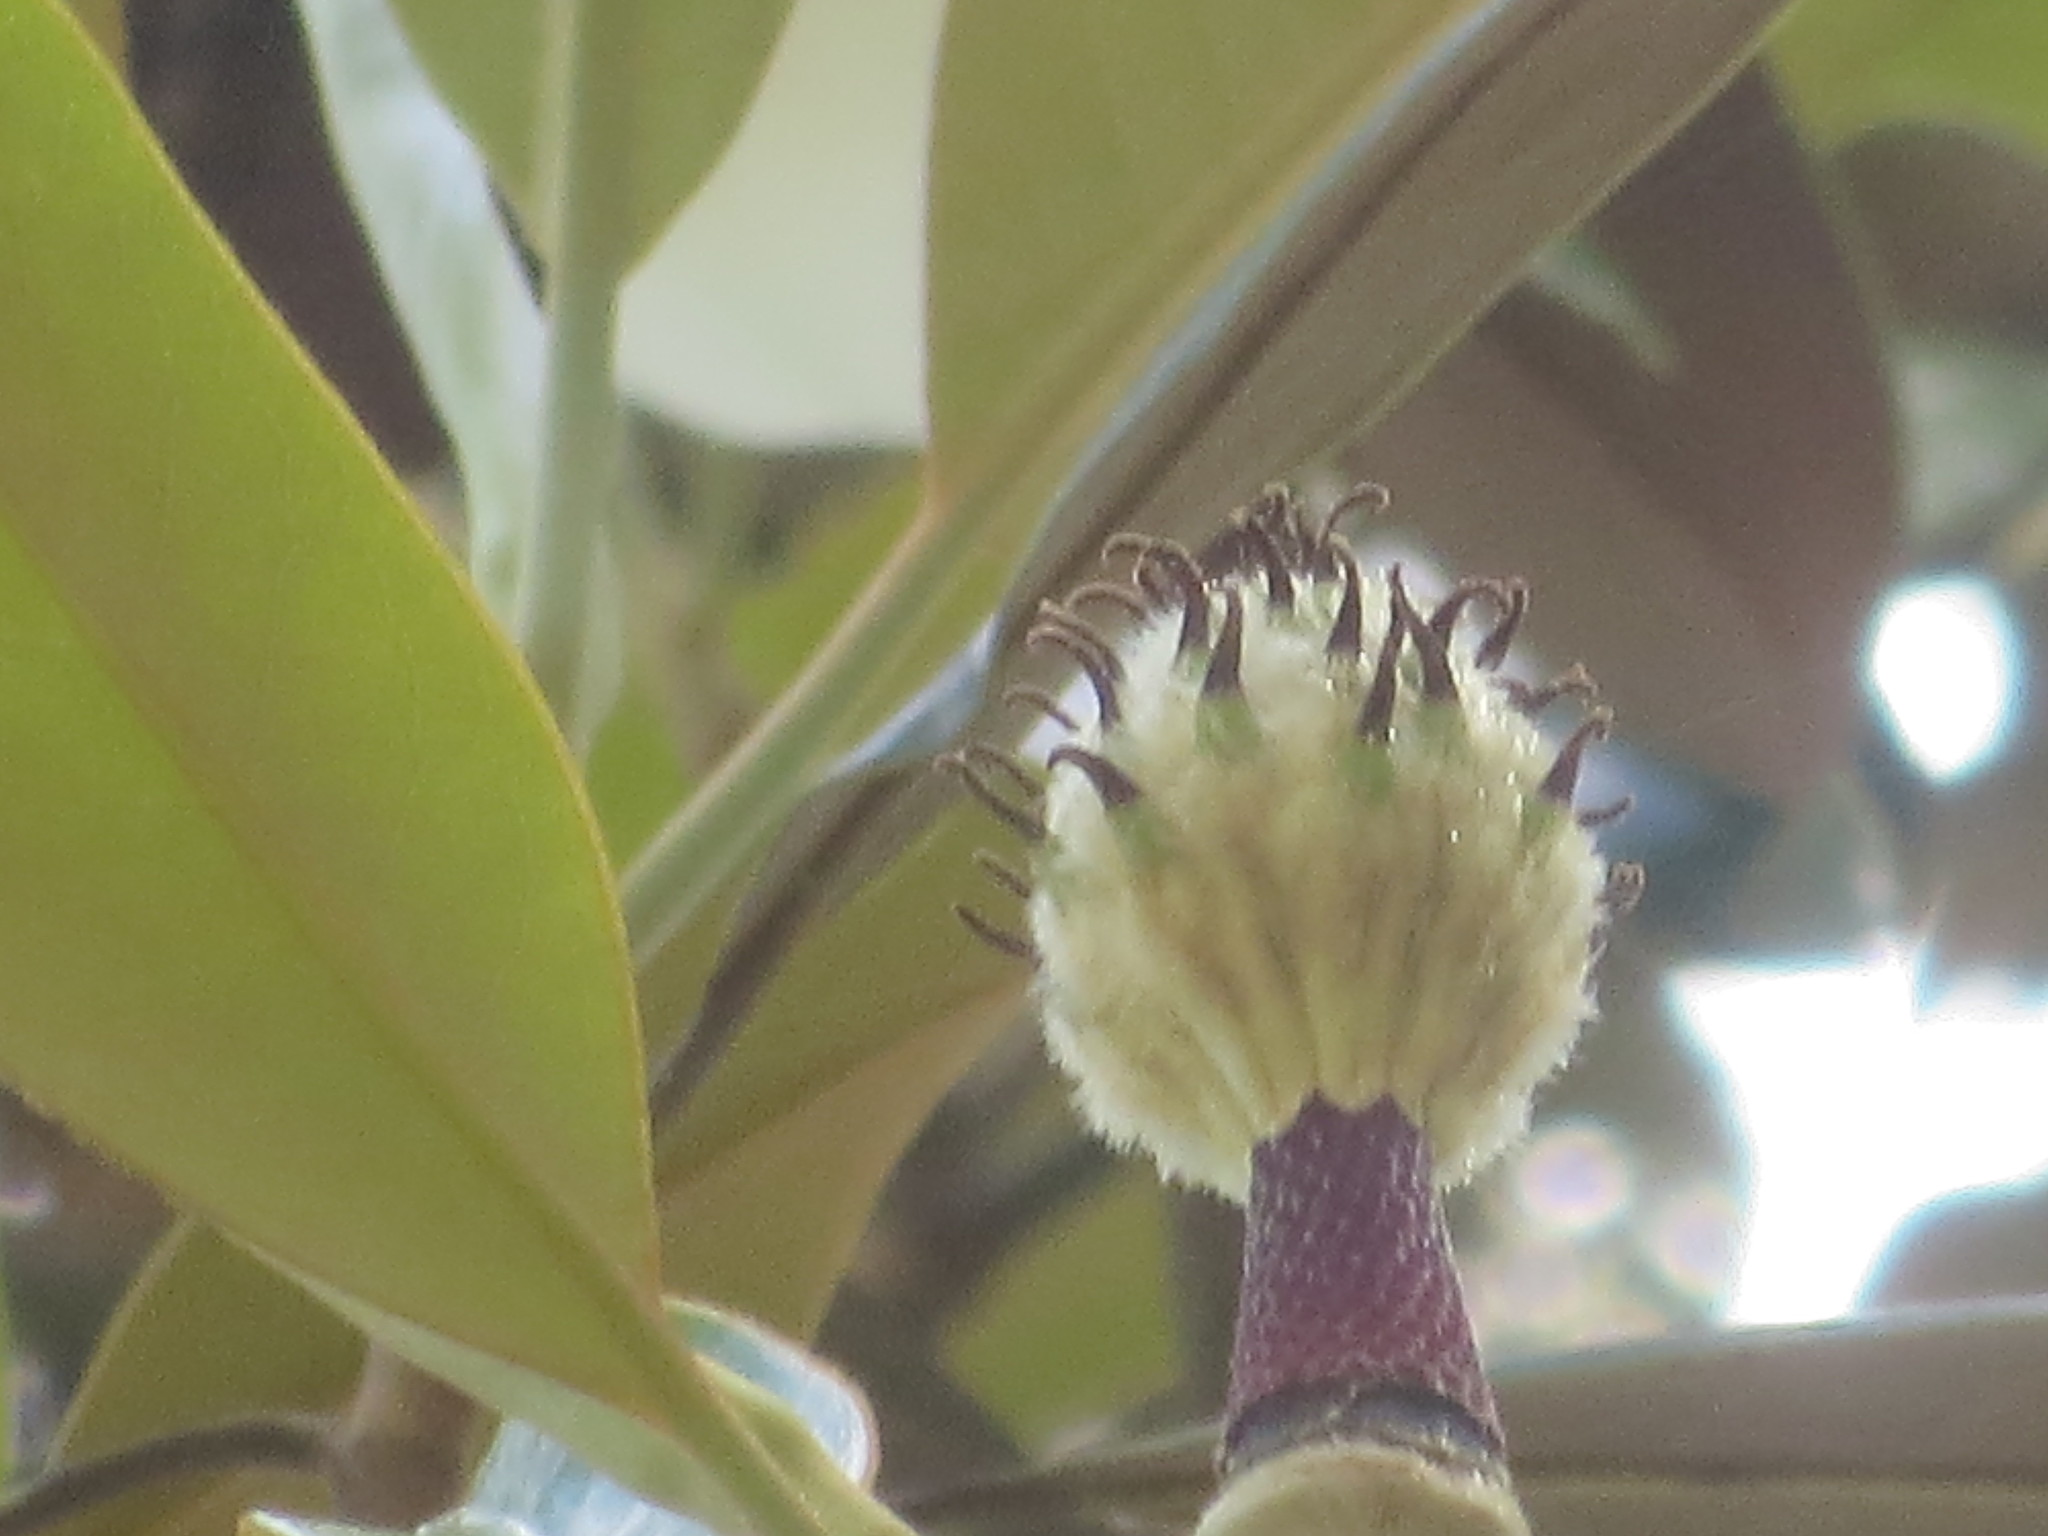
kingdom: Plantae
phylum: Tracheophyta
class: Magnoliopsida
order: Magnoliales
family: Magnoliaceae
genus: Magnolia
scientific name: Magnolia grandiflora
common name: Southern magnolia
